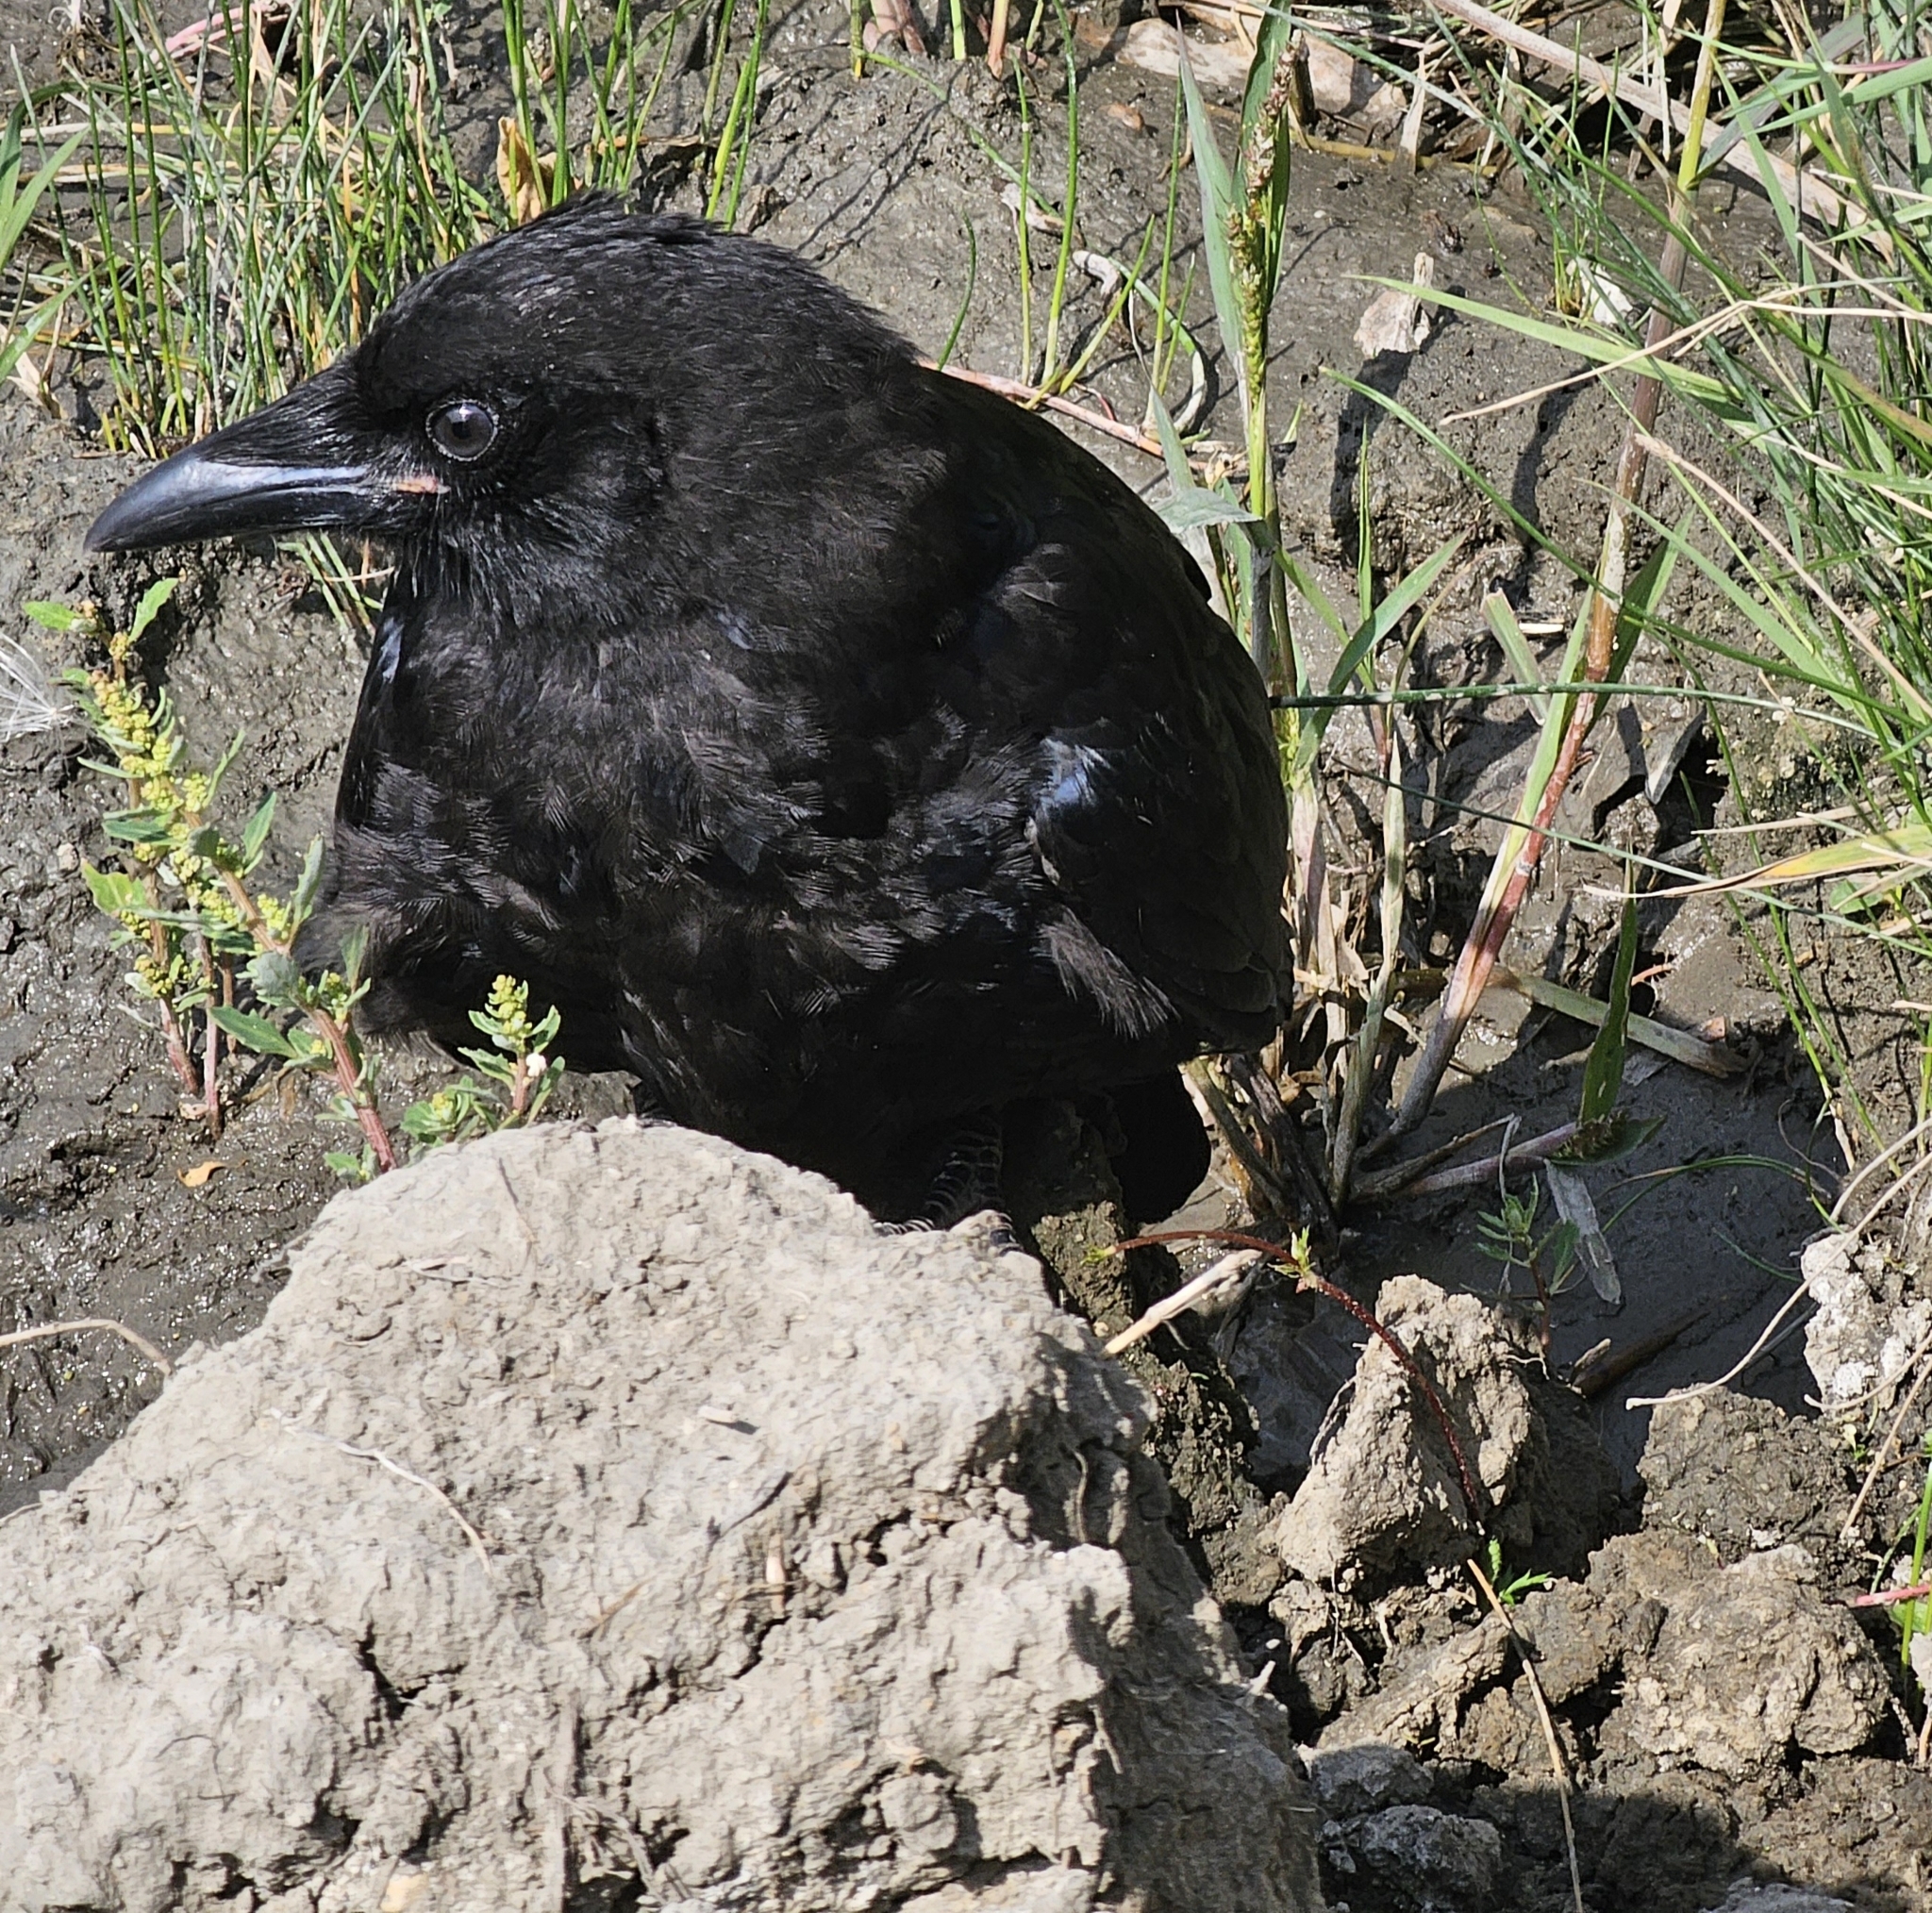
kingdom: Animalia
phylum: Chordata
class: Aves
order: Passeriformes
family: Corvidae
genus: Corvus
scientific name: Corvus brachyrhynchos
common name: American crow
